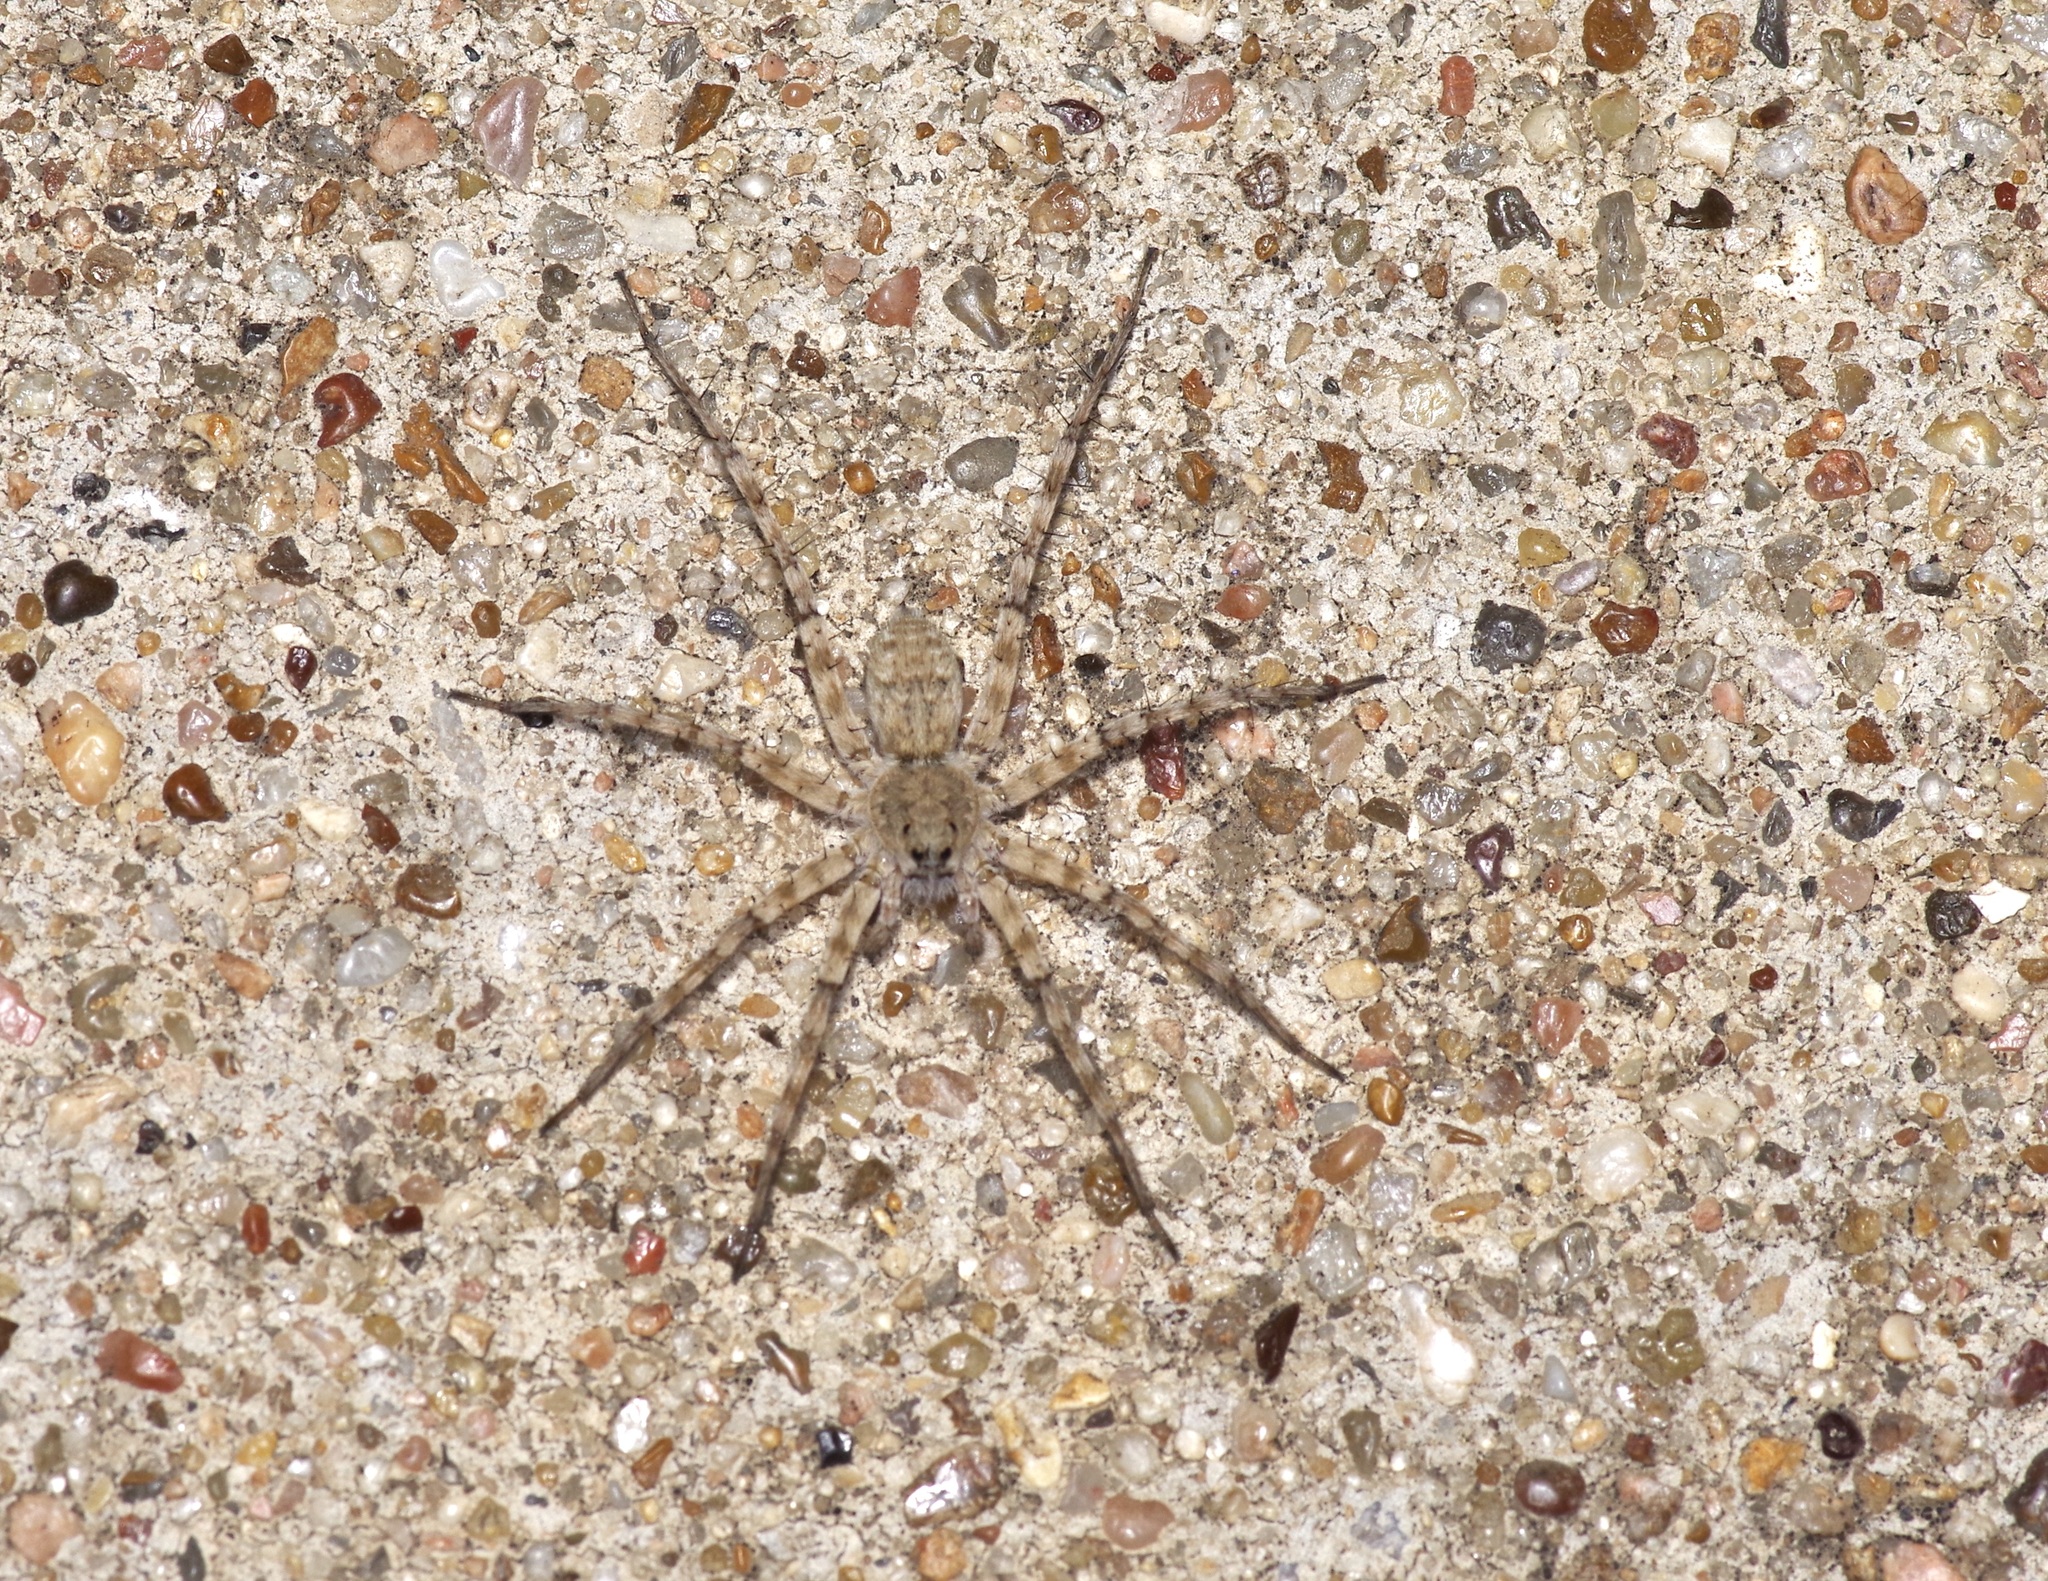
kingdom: Animalia
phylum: Arthropoda
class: Arachnida
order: Araneae
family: Lycosidae
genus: Pardosa
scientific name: Pardosa mercurialis
